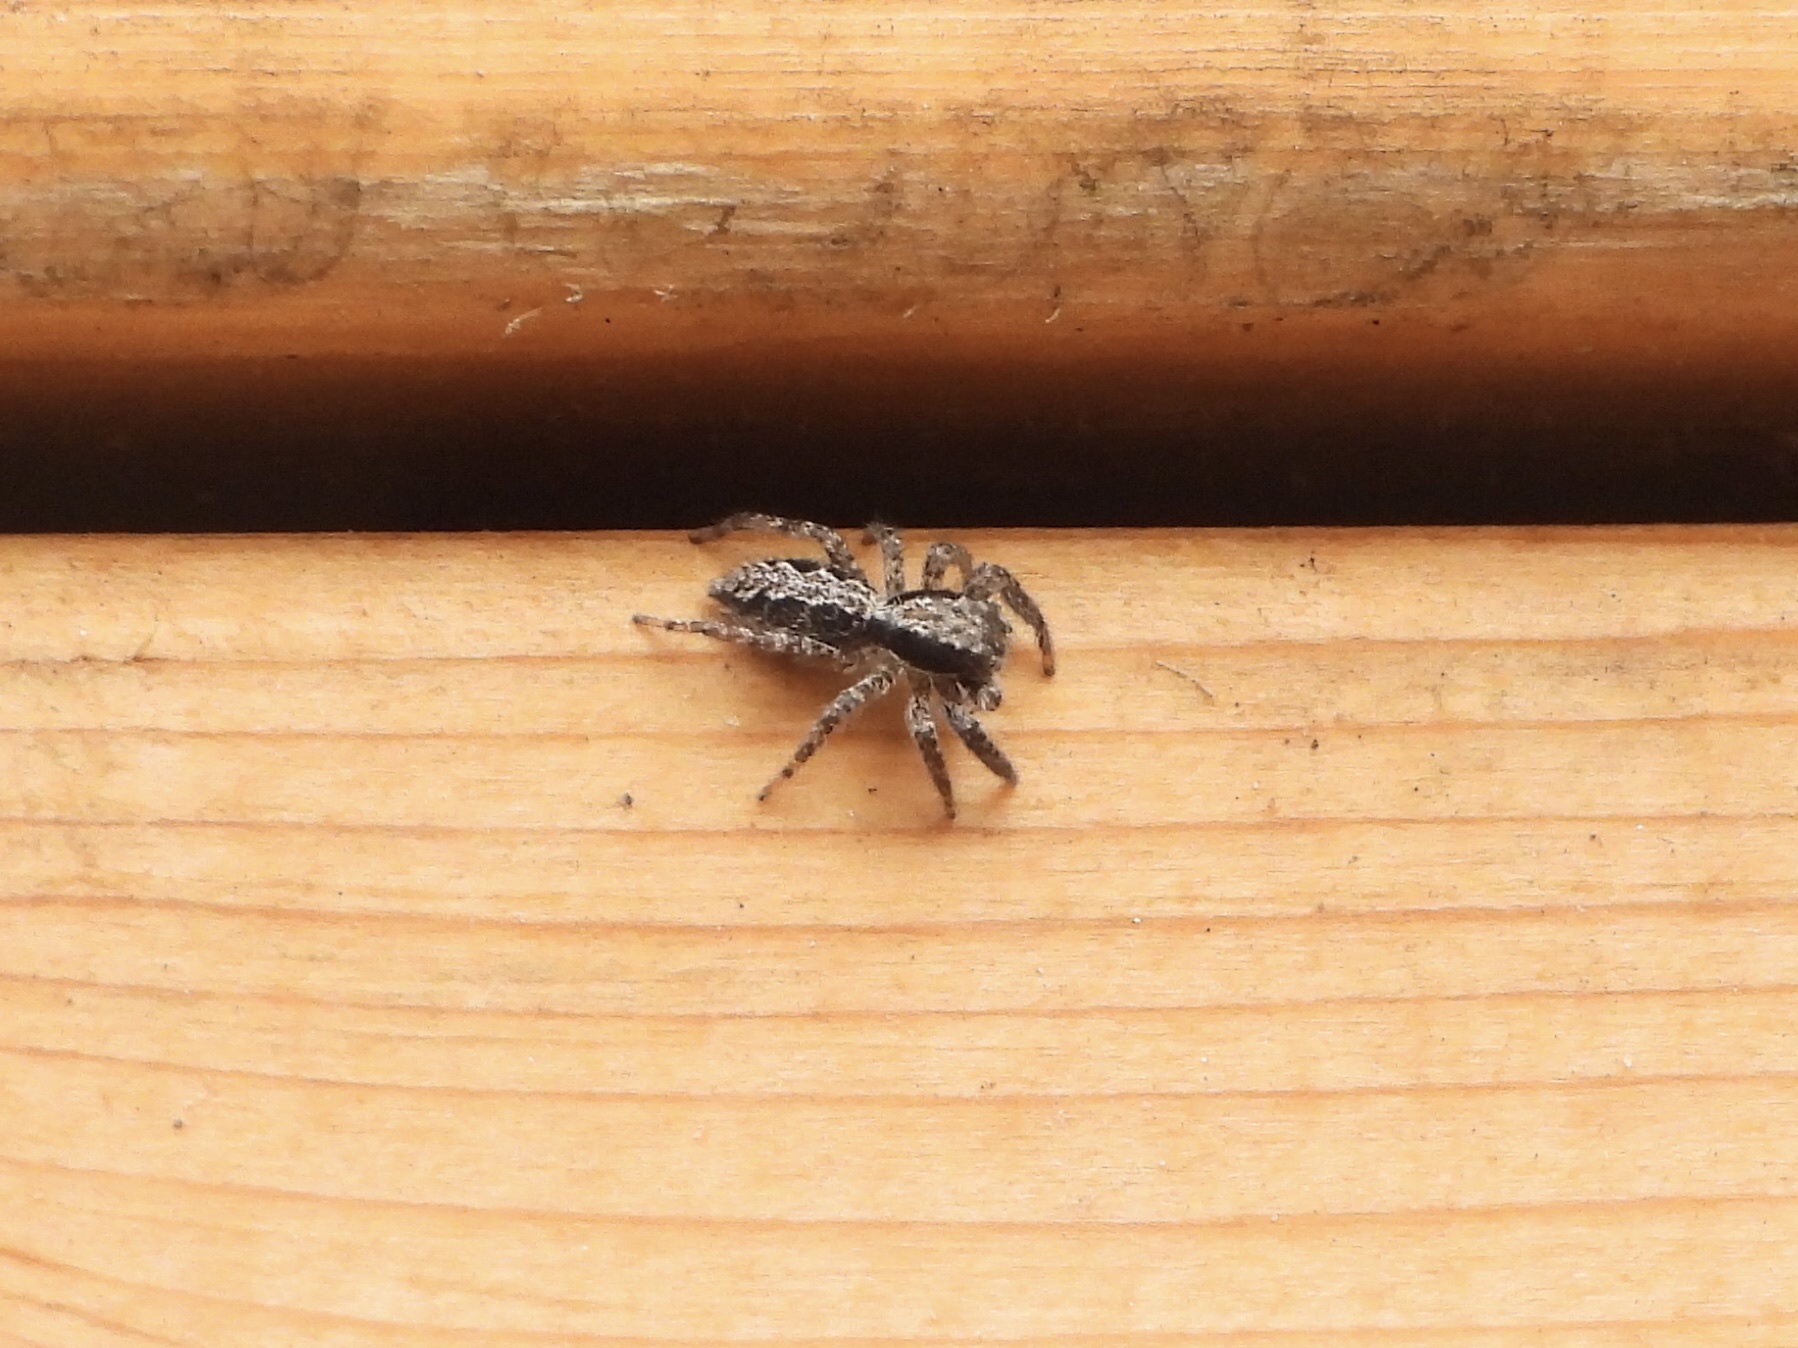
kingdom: Animalia
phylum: Arthropoda
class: Arachnida
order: Araneae
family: Salticidae
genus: Platycryptus
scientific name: Platycryptus californicus
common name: Jumping spiders
